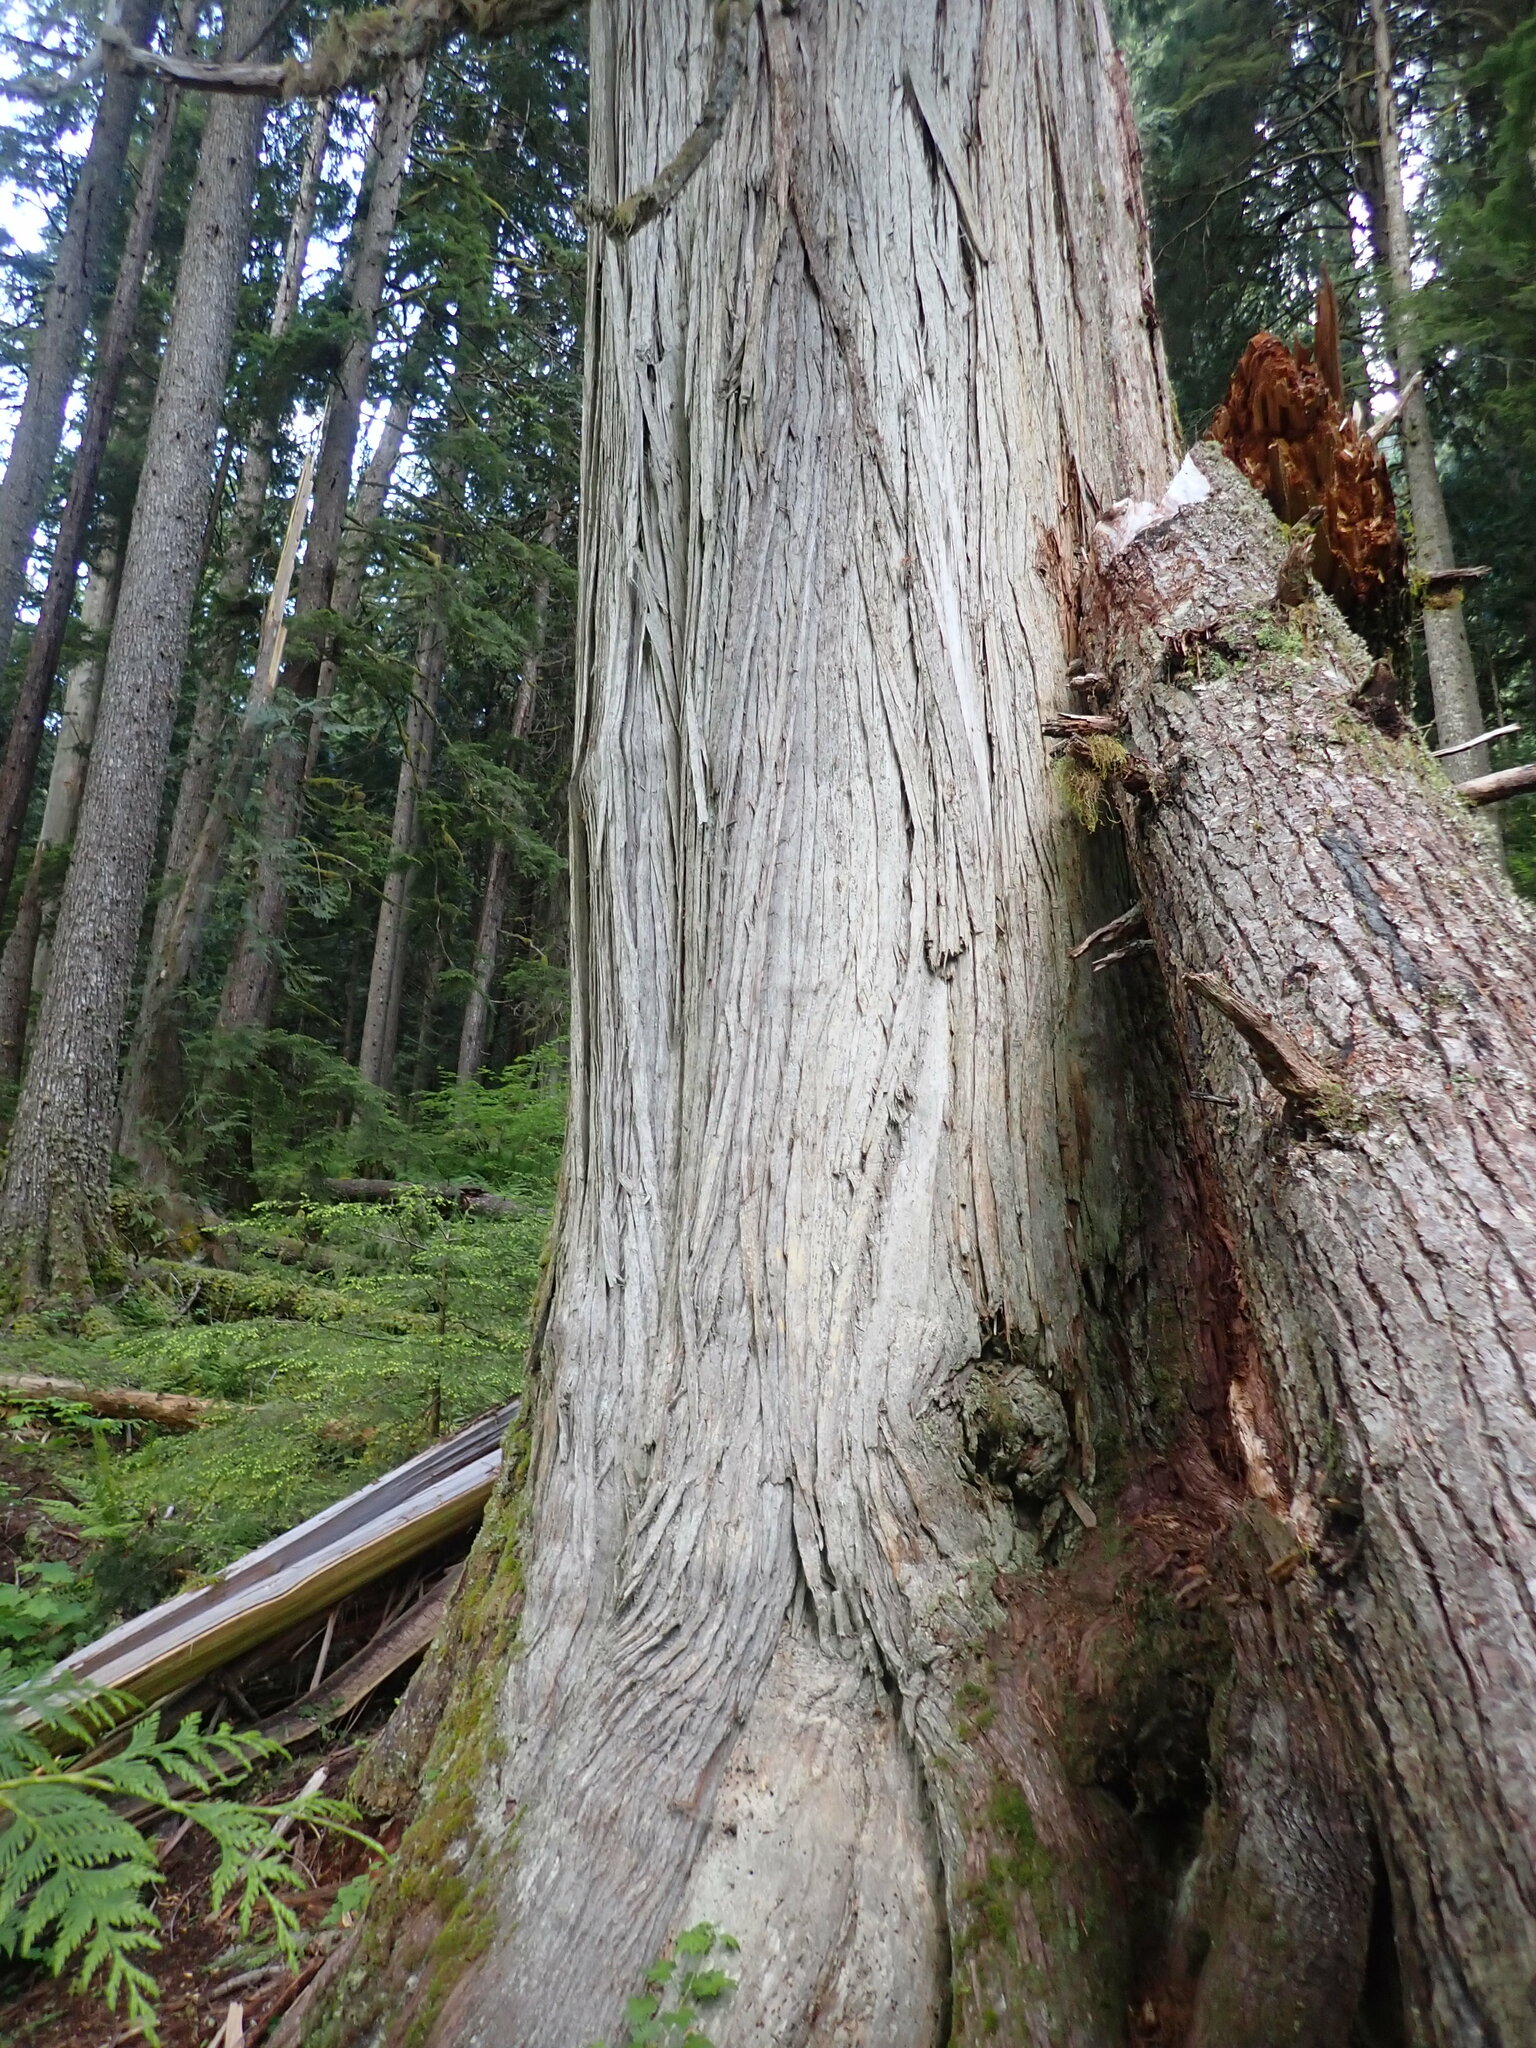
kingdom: Plantae
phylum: Tracheophyta
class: Pinopsida
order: Pinales
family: Cupressaceae
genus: Thuja
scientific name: Thuja plicata
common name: Western red-cedar
